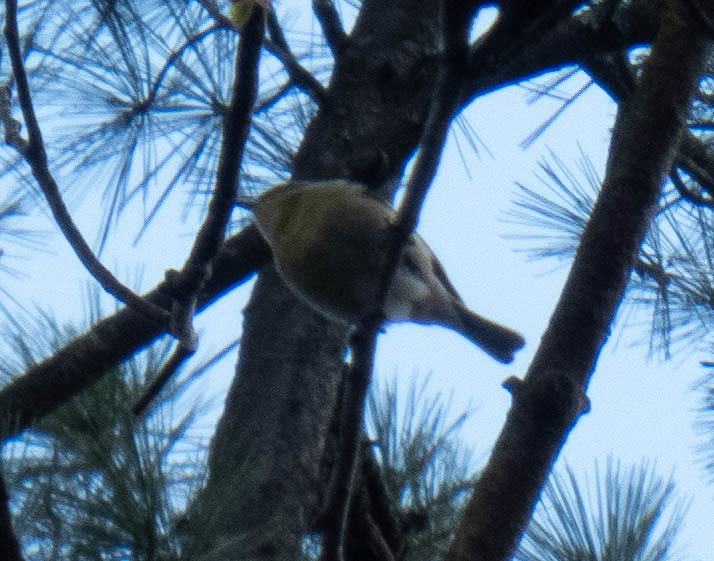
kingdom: Animalia
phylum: Chordata
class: Aves
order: Passeriformes
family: Parulidae
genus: Setophaga
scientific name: Setophaga pinus
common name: Pine warbler
